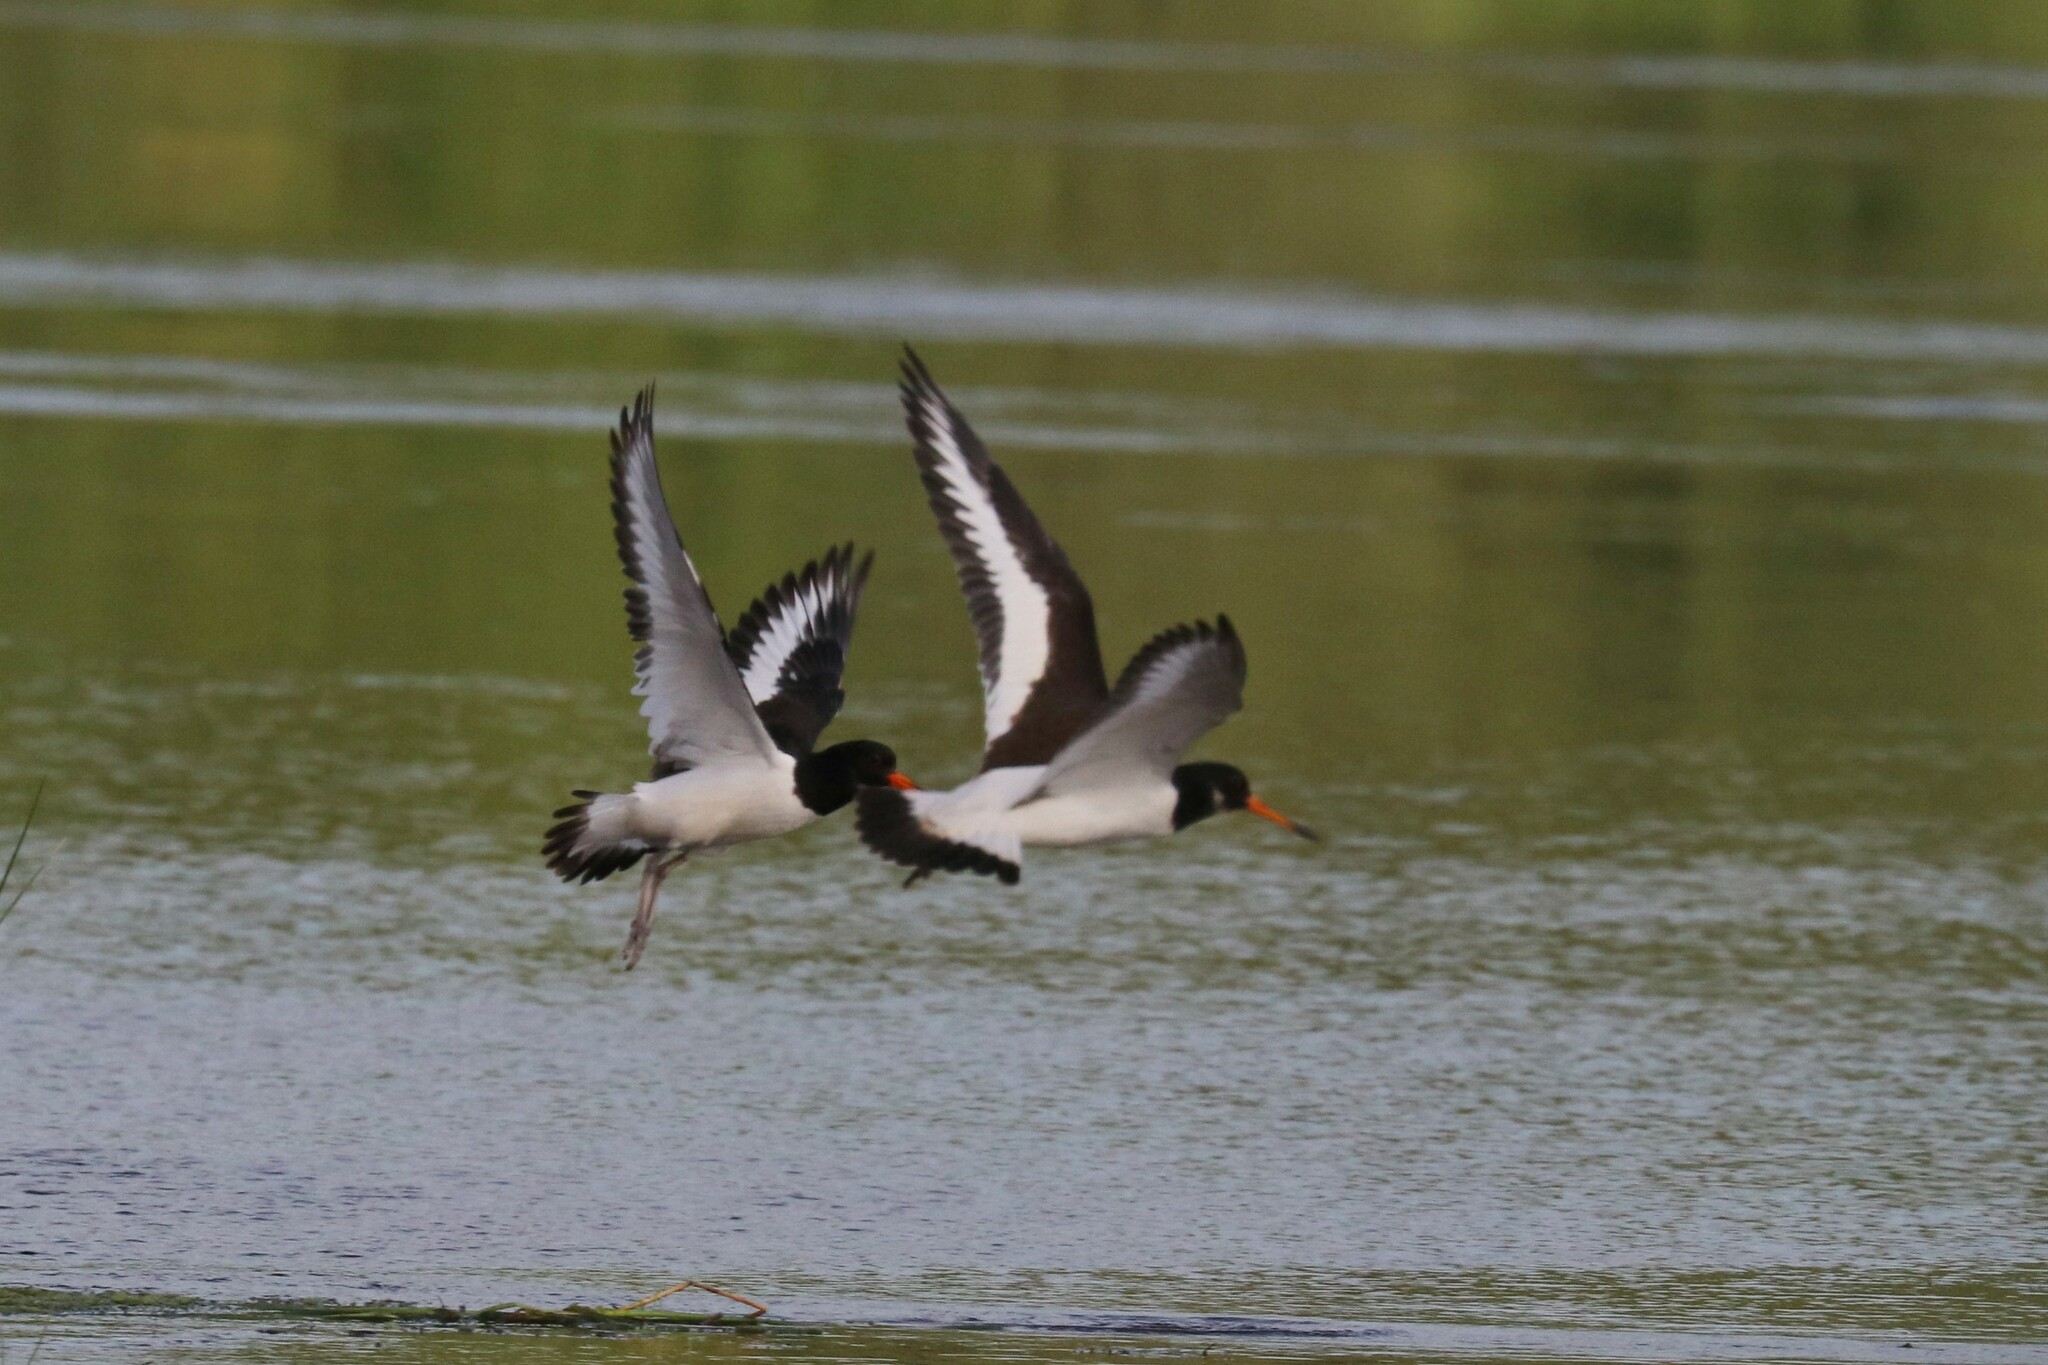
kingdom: Animalia
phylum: Chordata
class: Aves
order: Charadriiformes
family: Haematopodidae
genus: Haematopus
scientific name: Haematopus ostralegus
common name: Eurasian oystercatcher
